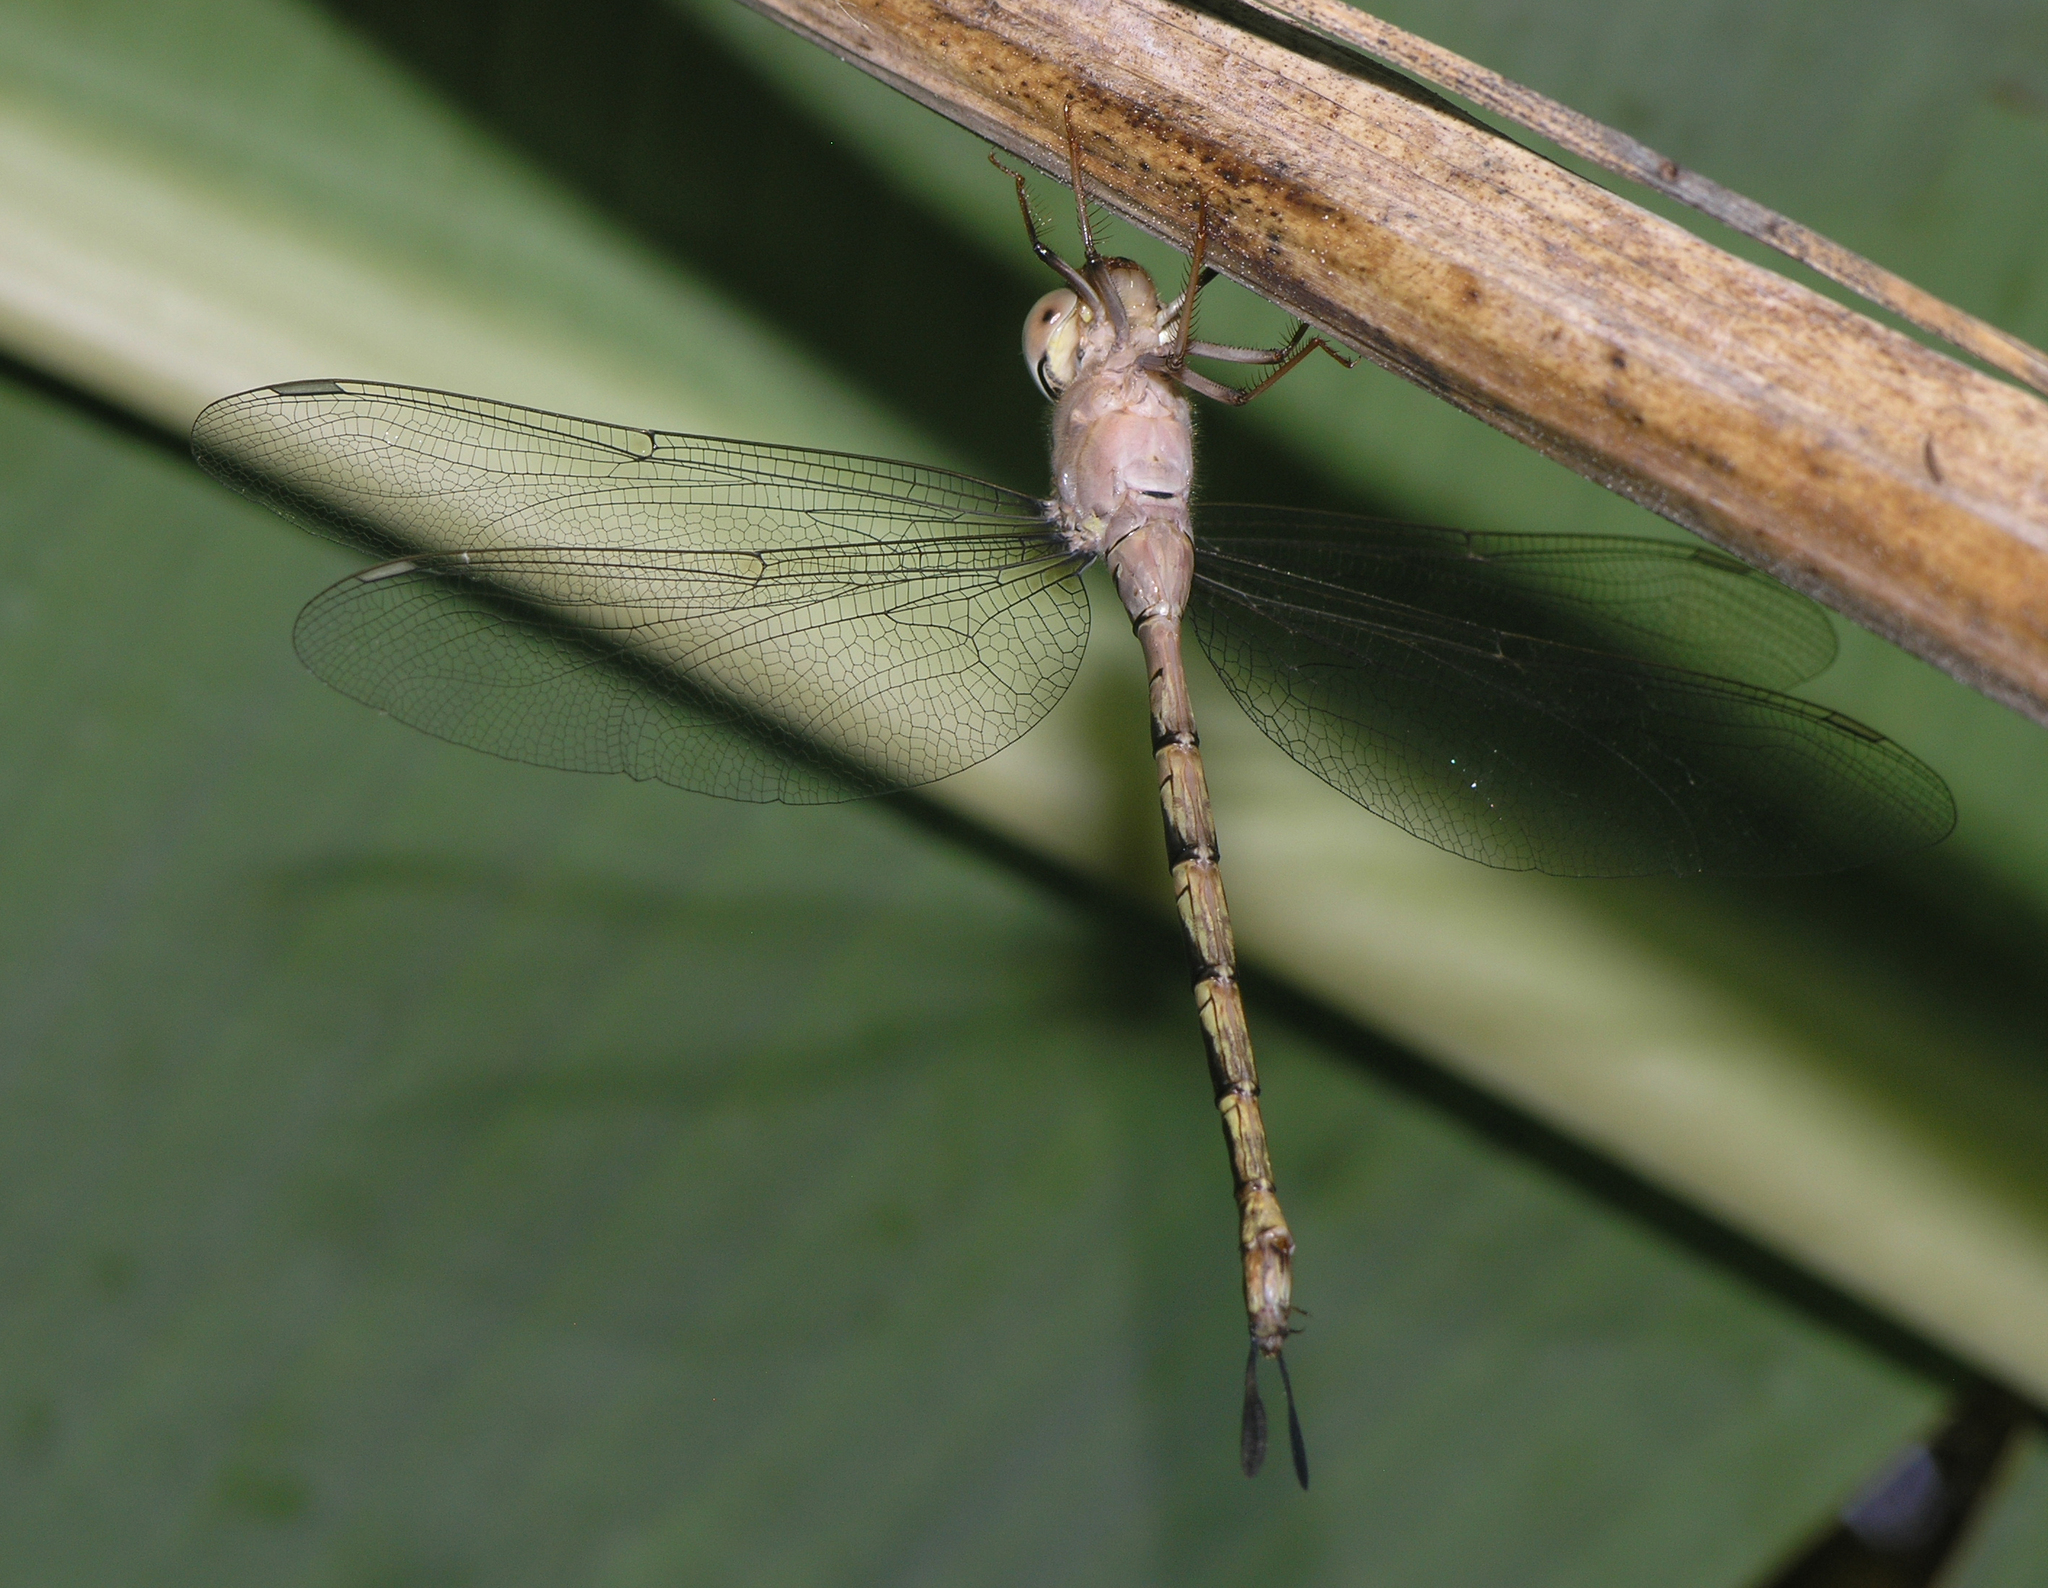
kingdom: Animalia
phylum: Arthropoda
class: Insecta
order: Odonata
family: Aeshnidae
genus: Gynacantha
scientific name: Gynacantha subinterrupta
